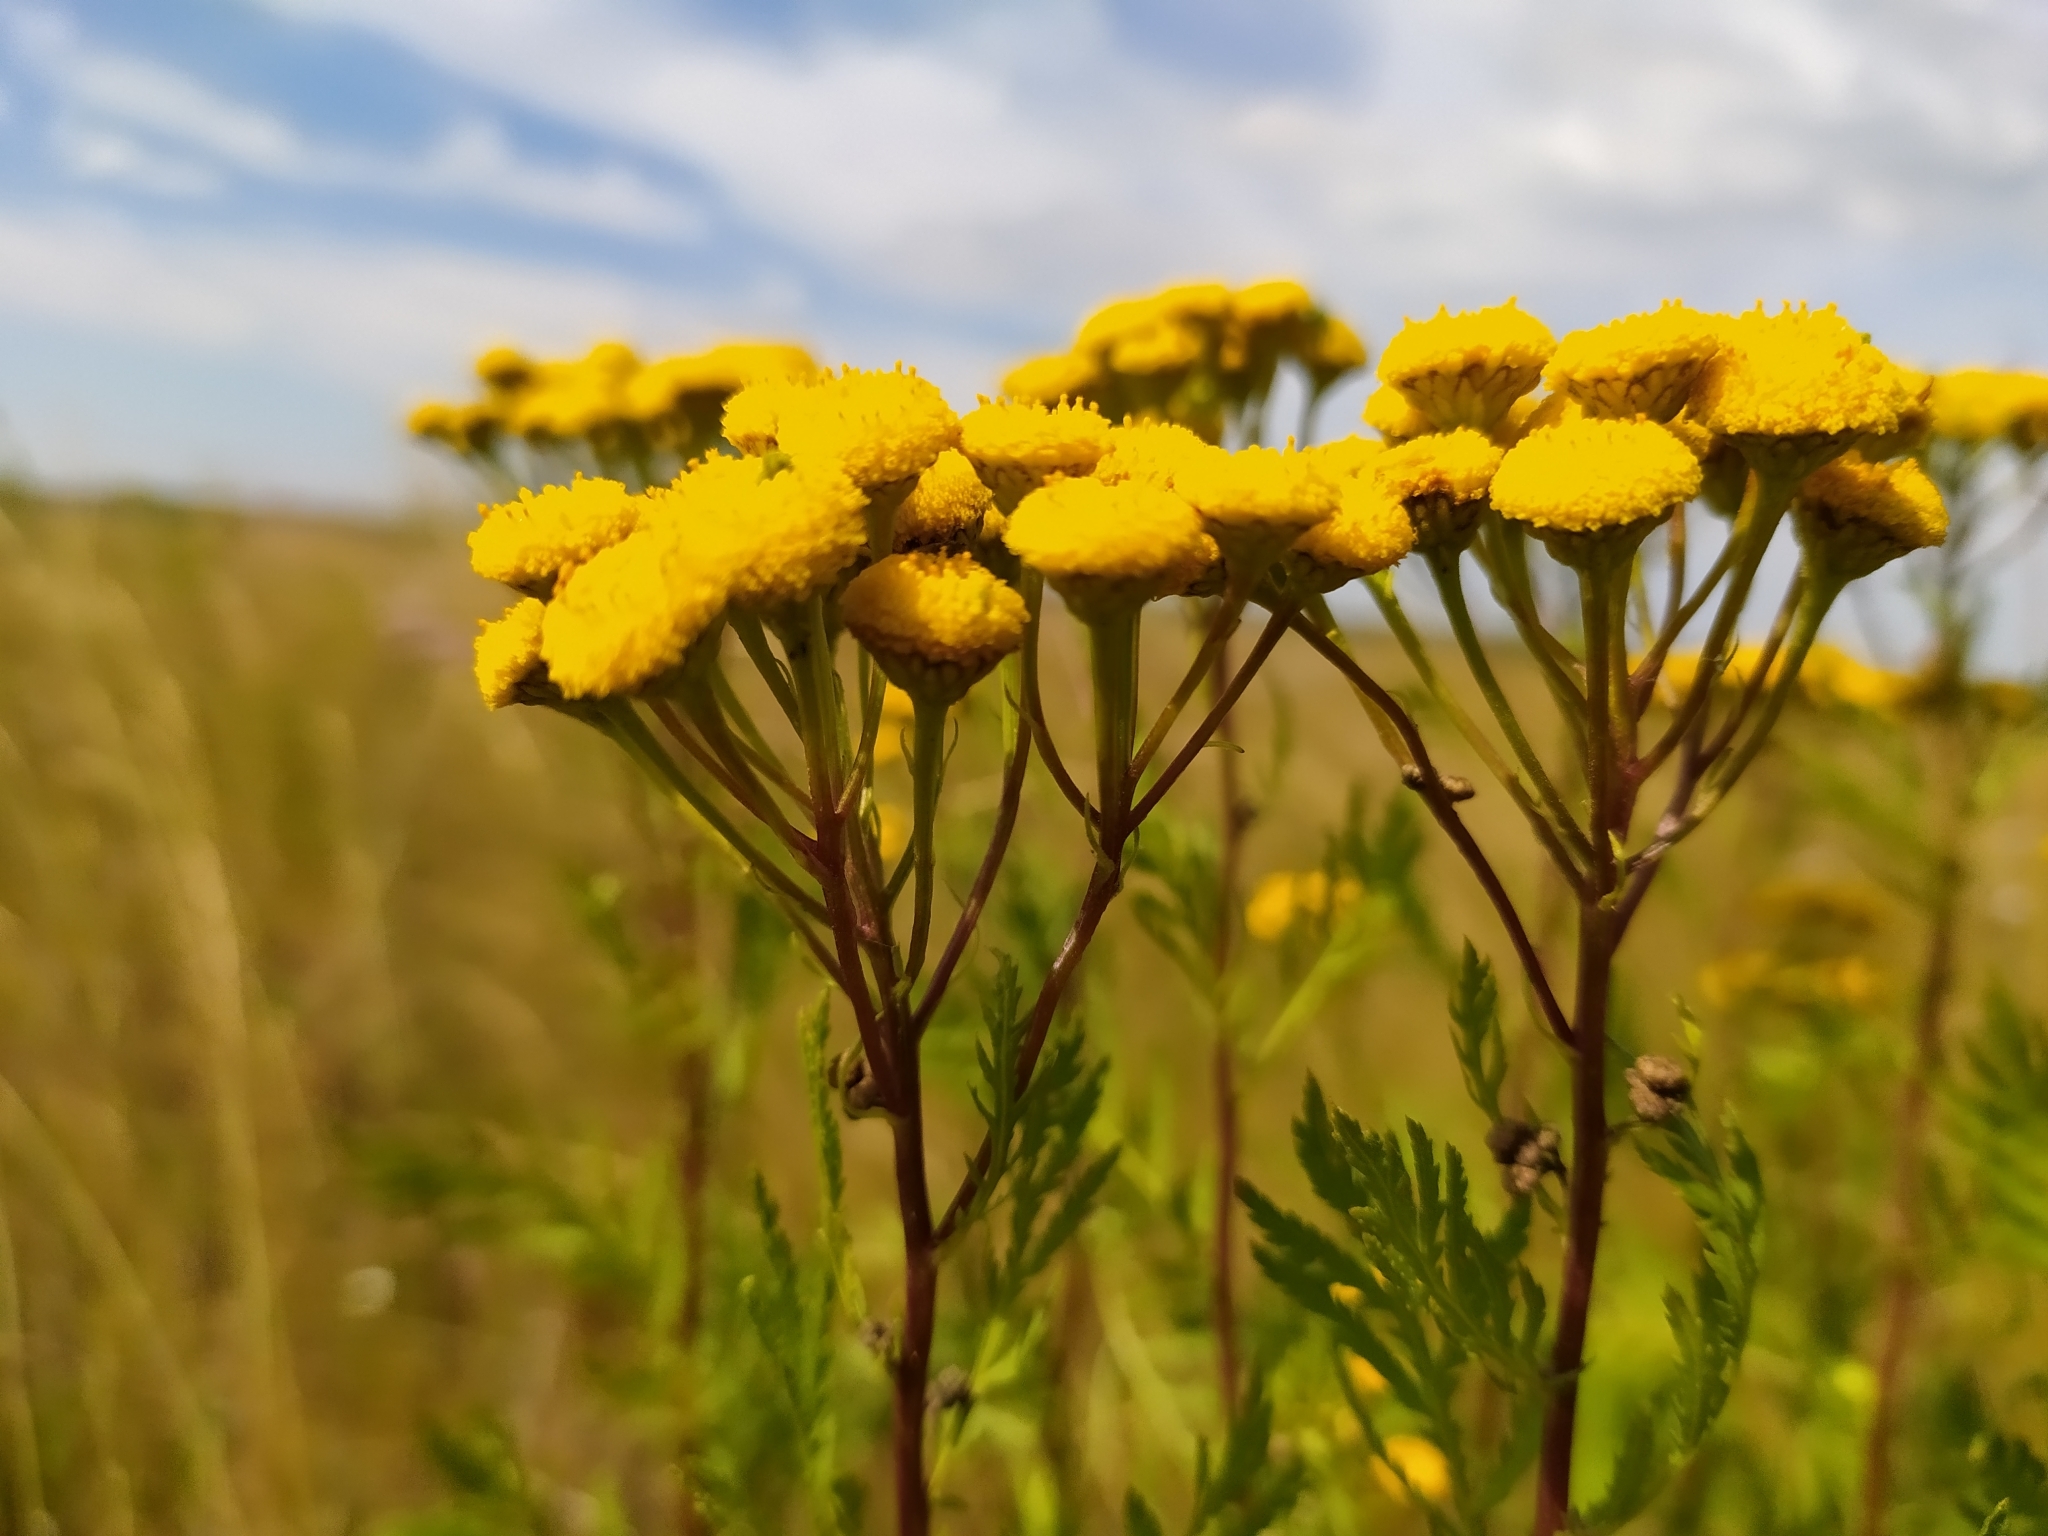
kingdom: Plantae
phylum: Tracheophyta
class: Magnoliopsida
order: Asterales
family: Asteraceae
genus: Tanacetum
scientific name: Tanacetum vulgare
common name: Common tansy
